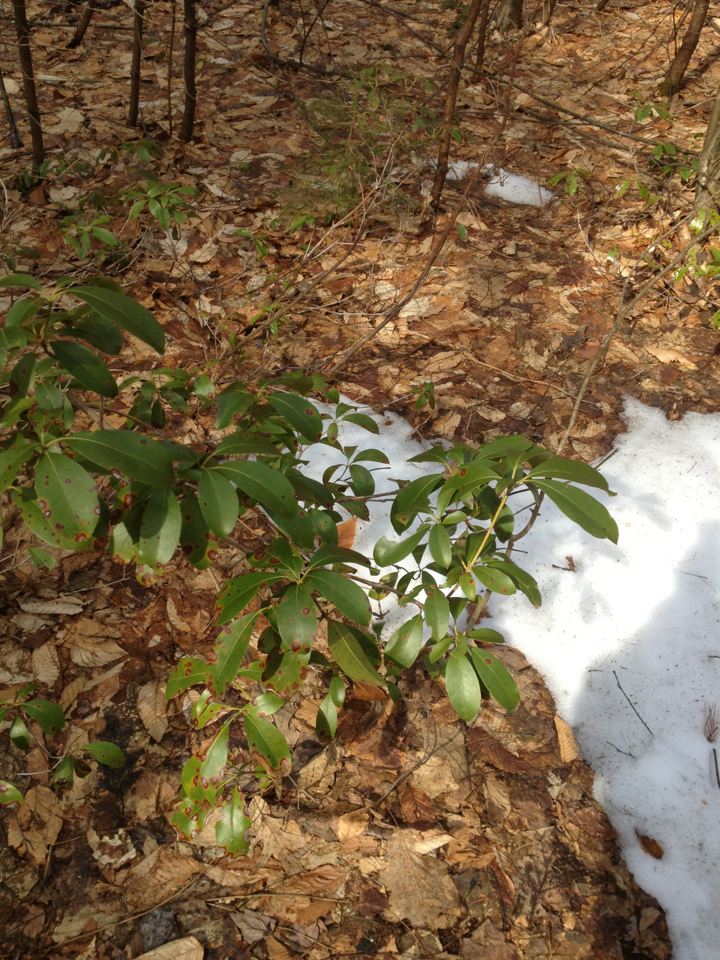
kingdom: Plantae
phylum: Tracheophyta
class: Magnoliopsida
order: Ericales
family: Ericaceae
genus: Kalmia
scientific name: Kalmia latifolia
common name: Mountain-laurel
